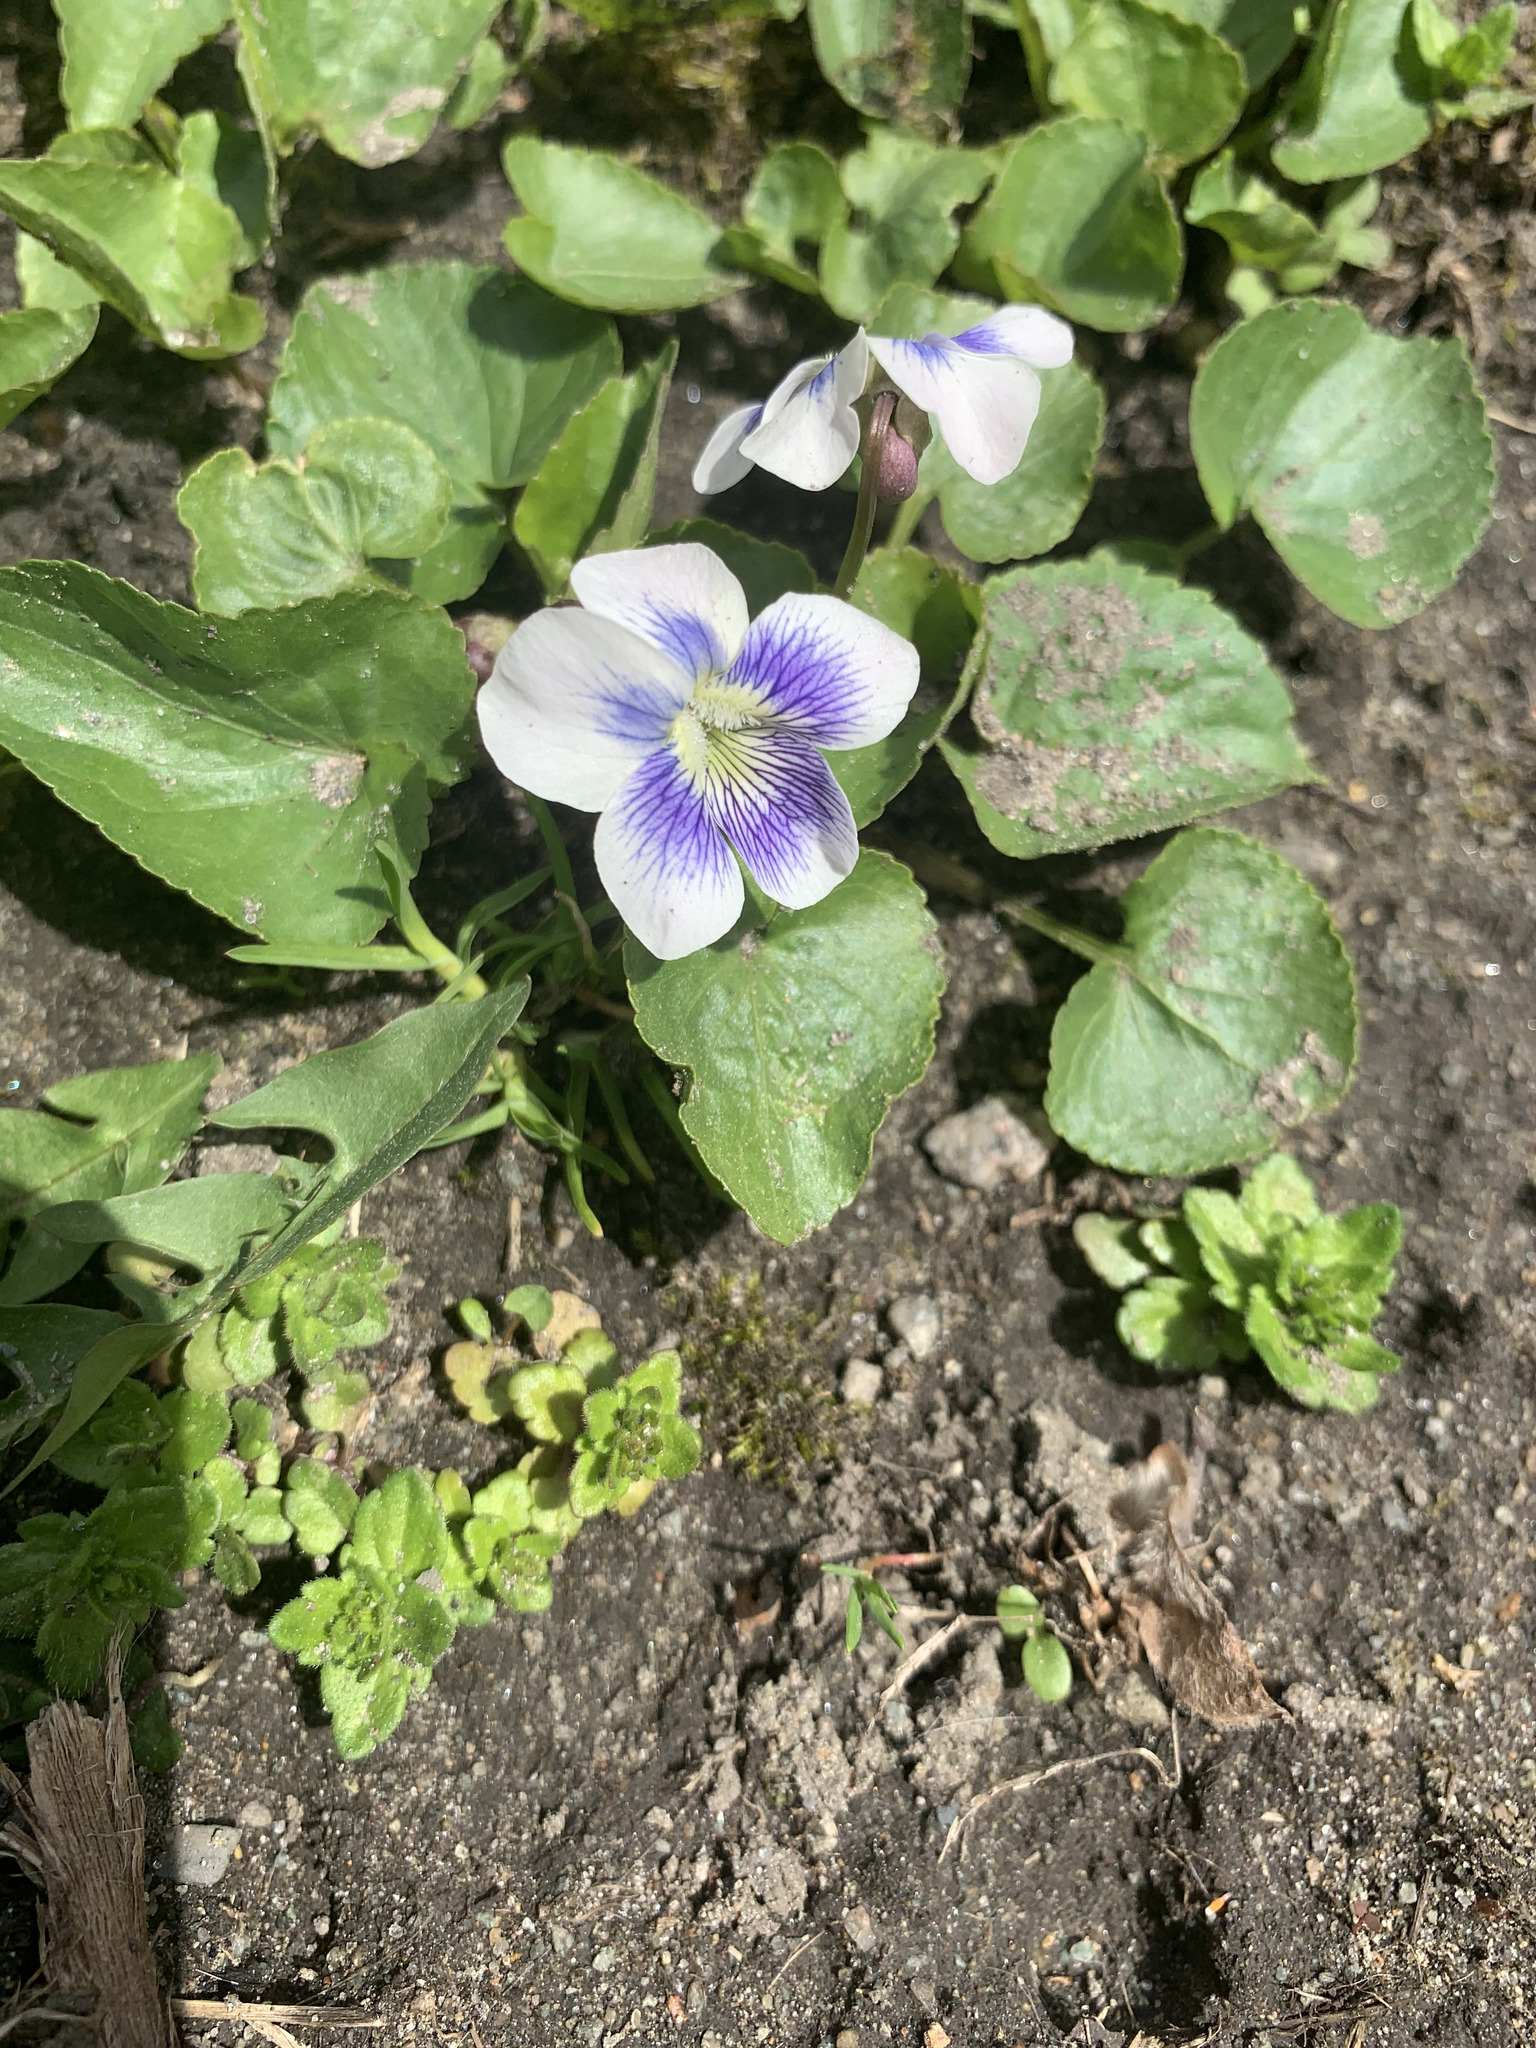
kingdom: Plantae
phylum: Tracheophyta
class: Magnoliopsida
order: Malpighiales
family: Violaceae
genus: Viola
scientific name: Viola sororia
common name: Dooryard violet
